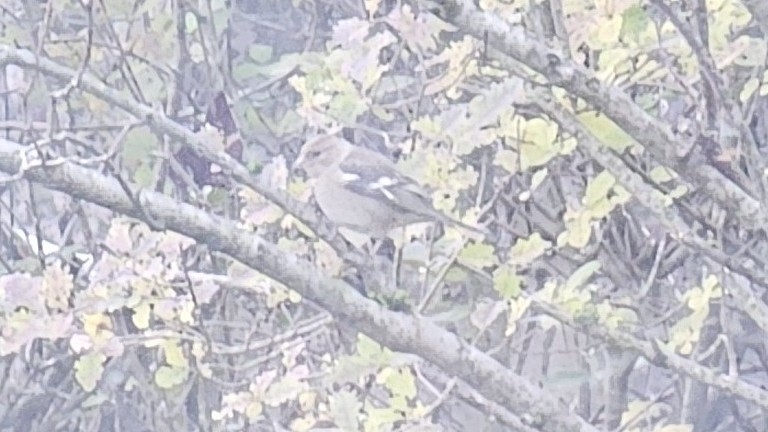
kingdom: Animalia
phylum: Chordata
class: Aves
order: Passeriformes
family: Fringillidae
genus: Fringilla
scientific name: Fringilla coelebs
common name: Common chaffinch
